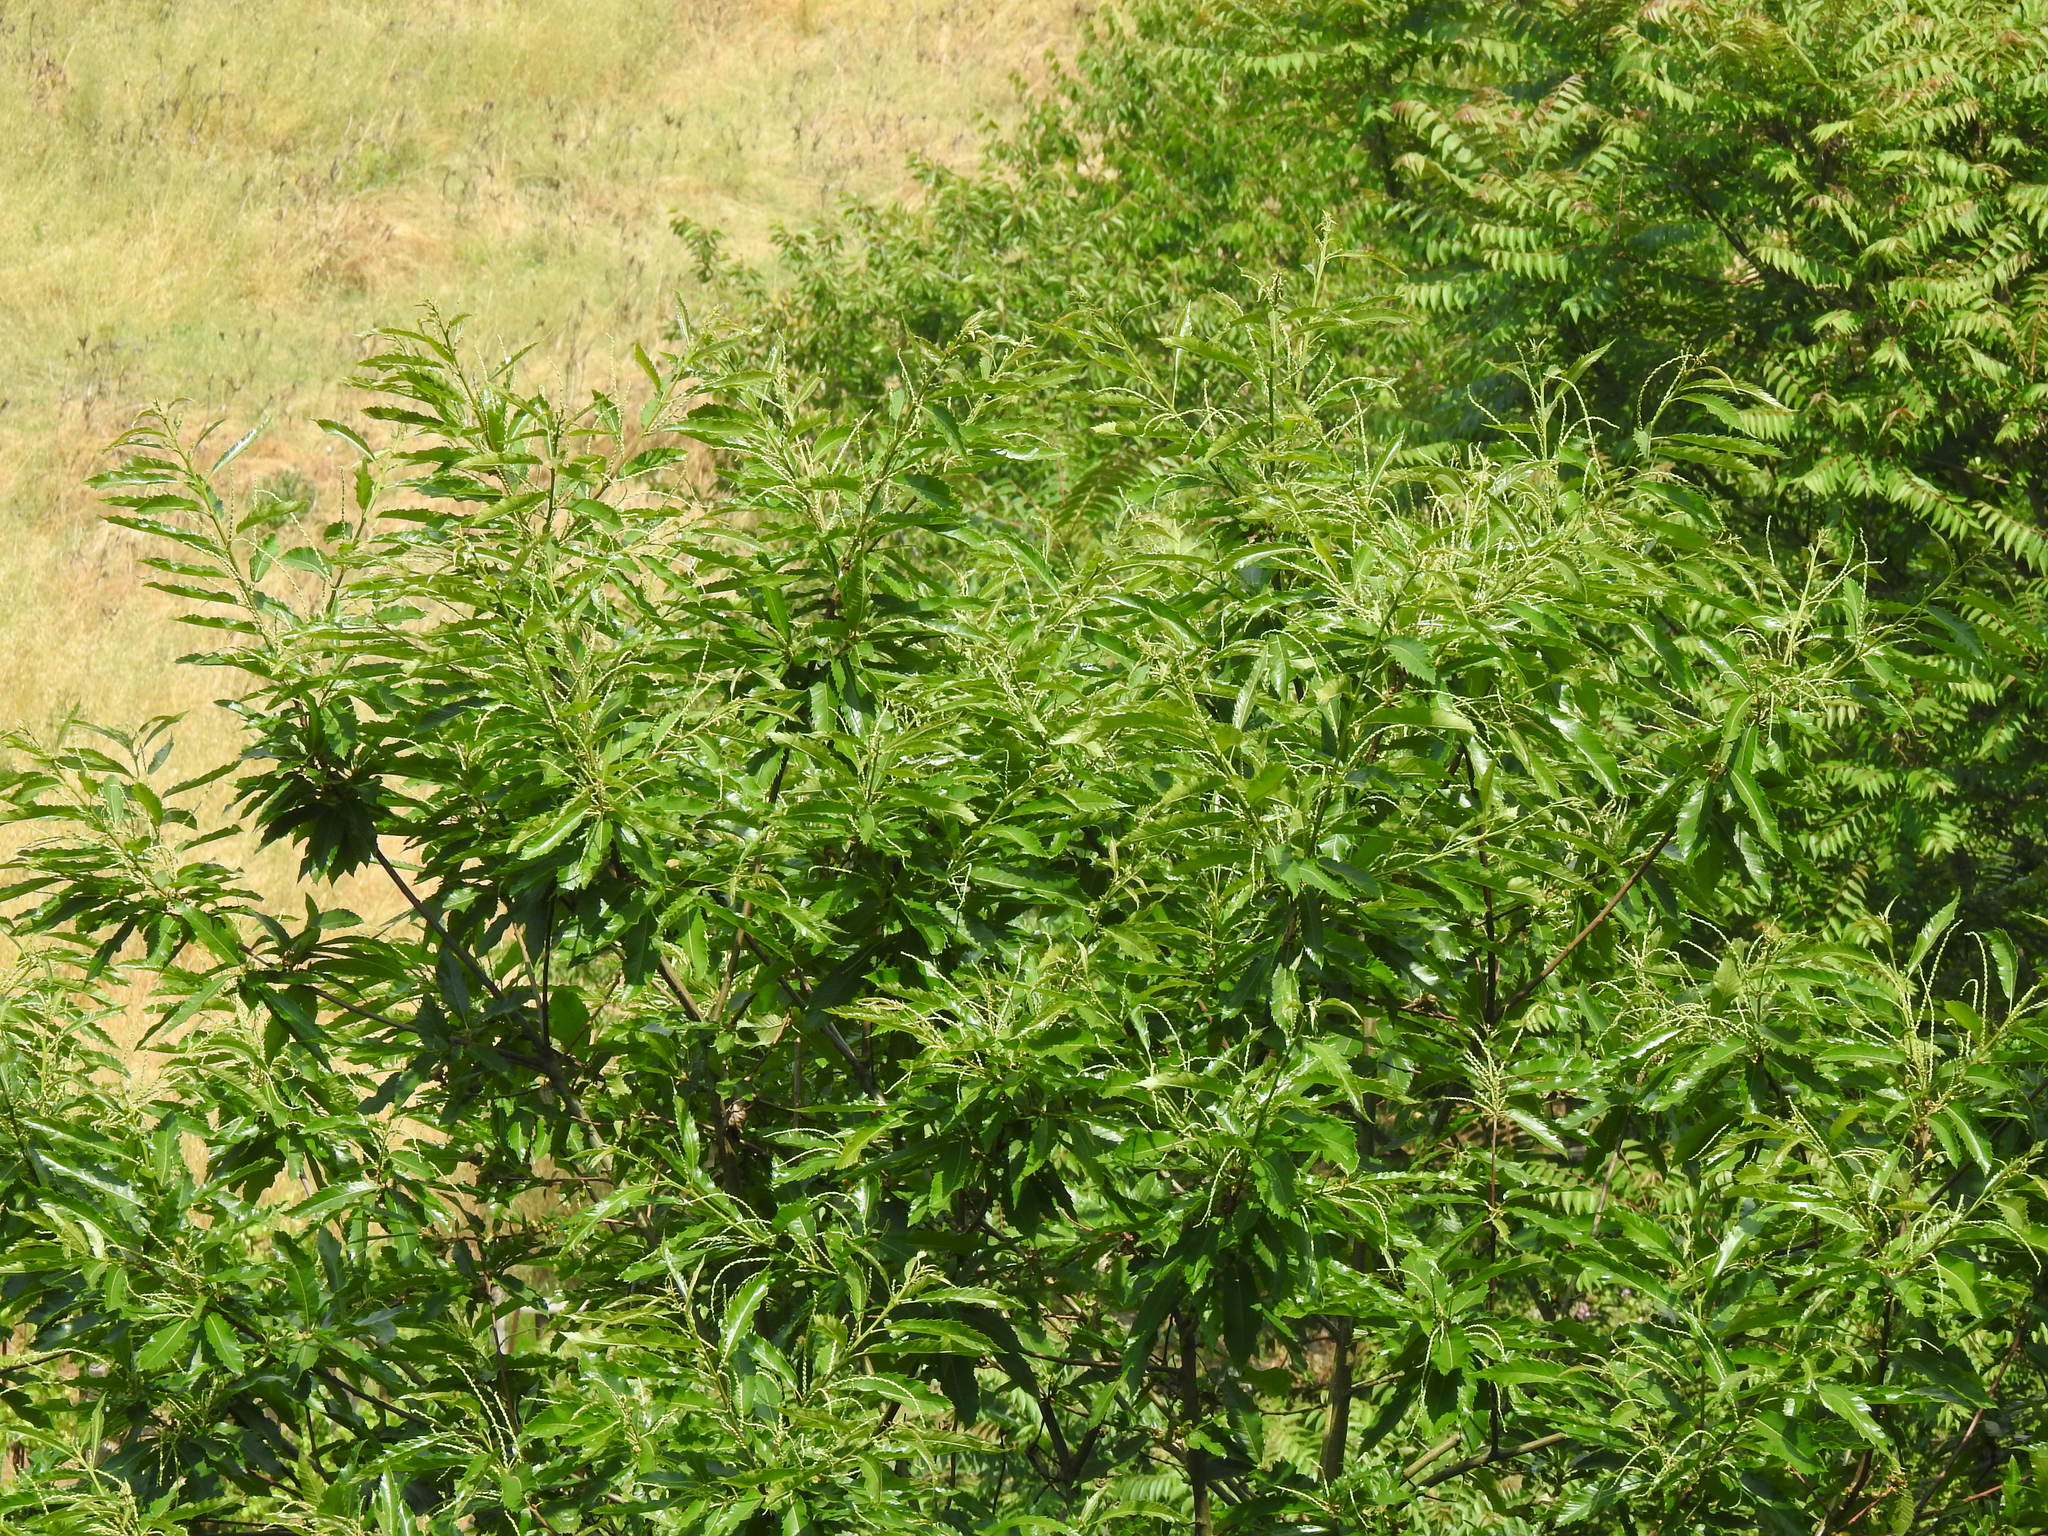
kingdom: Plantae
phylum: Tracheophyta
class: Magnoliopsida
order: Fagales
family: Fagaceae
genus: Castanea
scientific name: Castanea sativa
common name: Sweet chestnut
